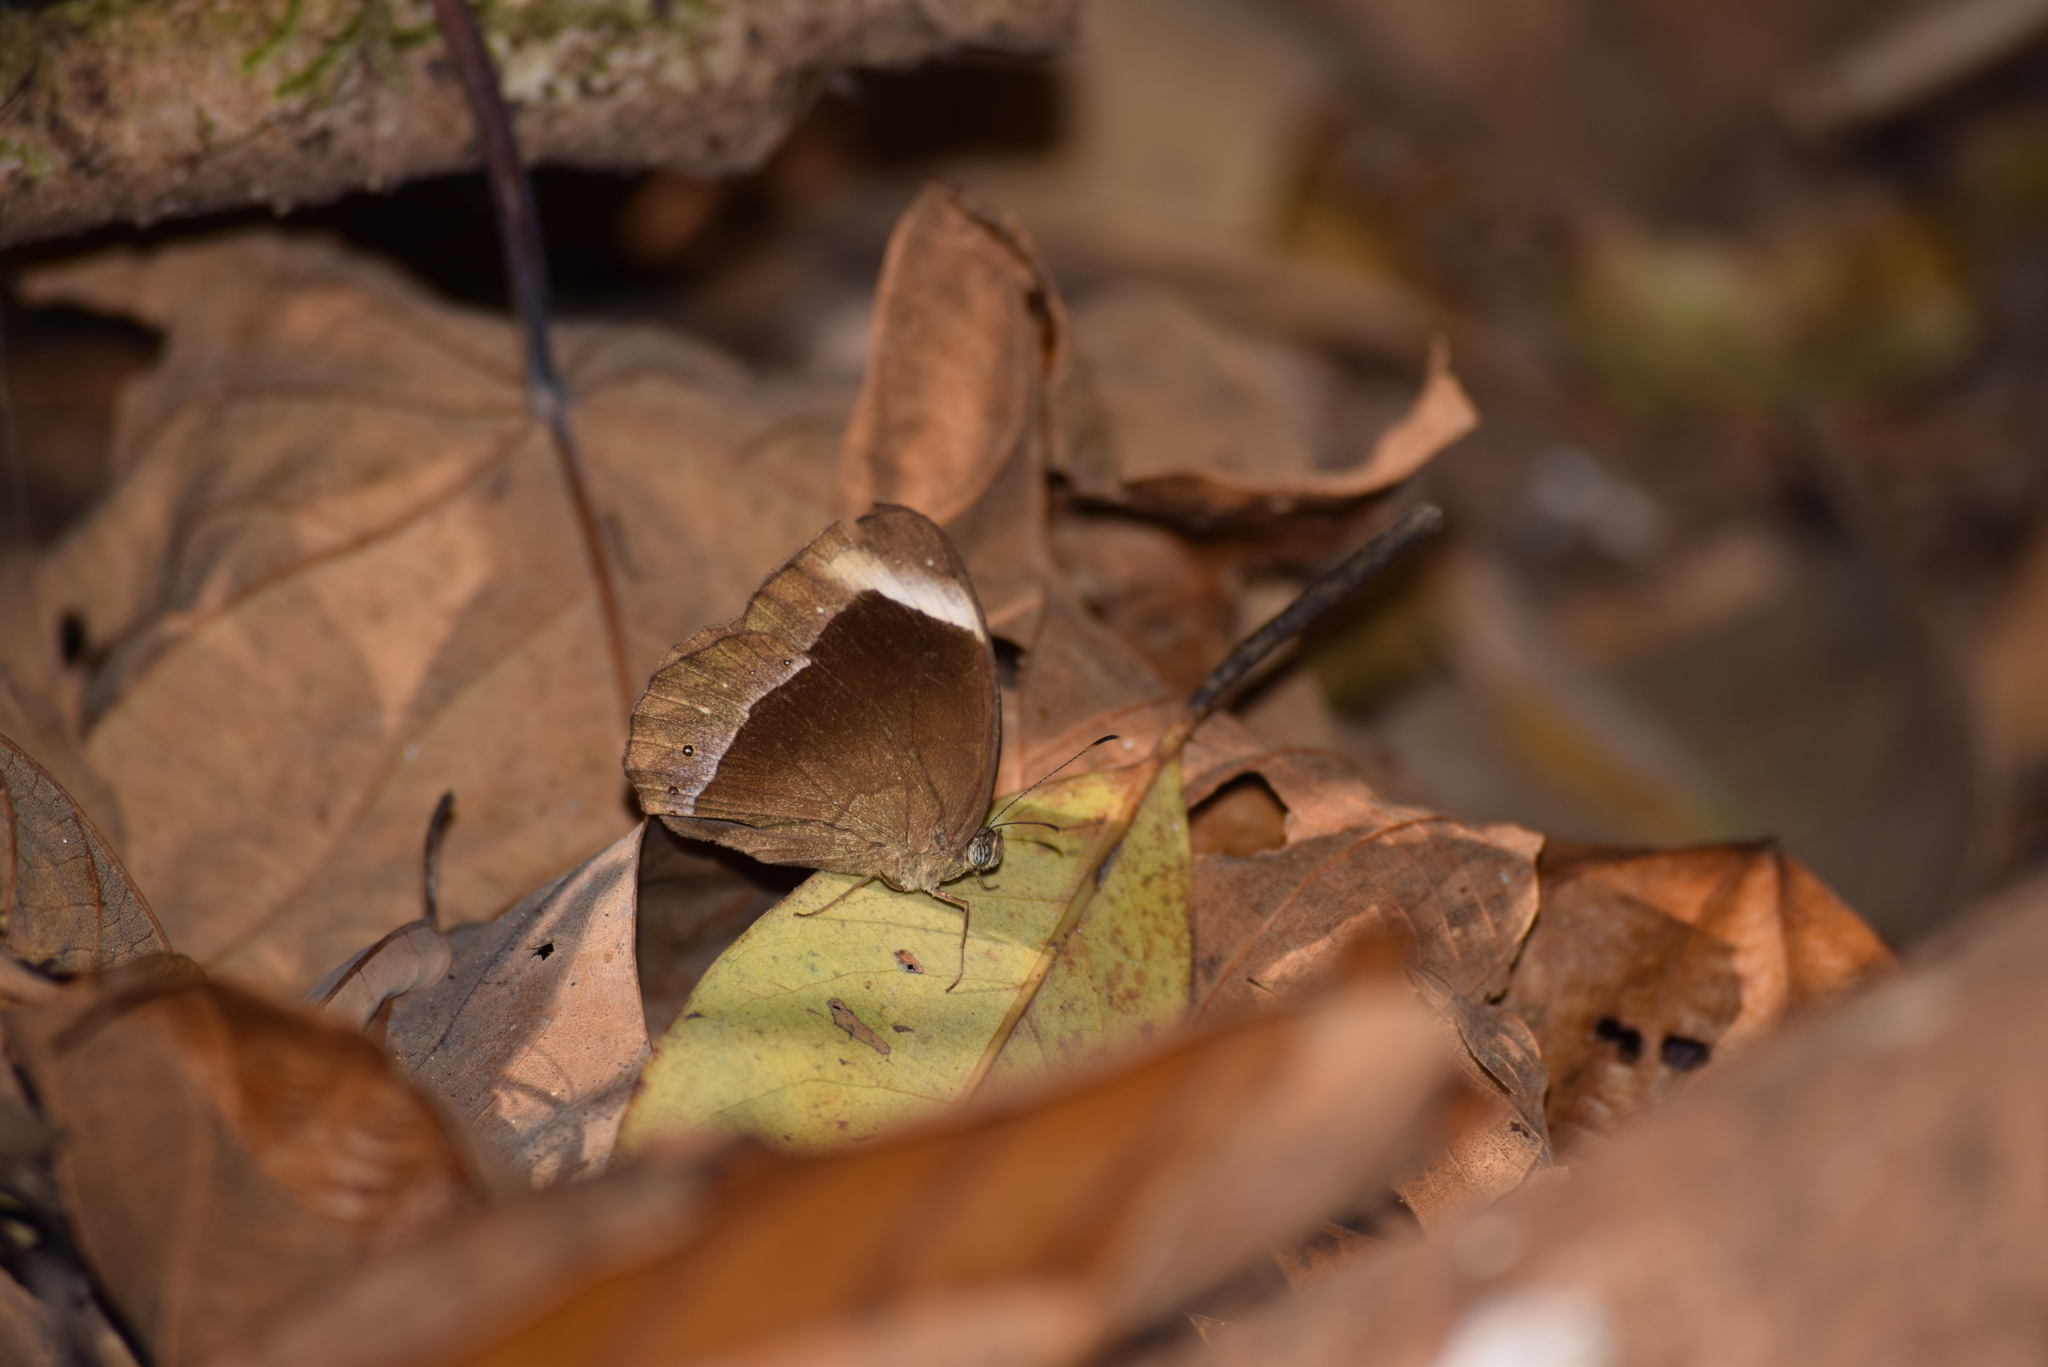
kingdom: Animalia
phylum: Arthropoda
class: Insecta
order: Lepidoptera
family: Nymphalidae
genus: Mycalesis
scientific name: Mycalesis anaxias
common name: White-bar bushbrown
